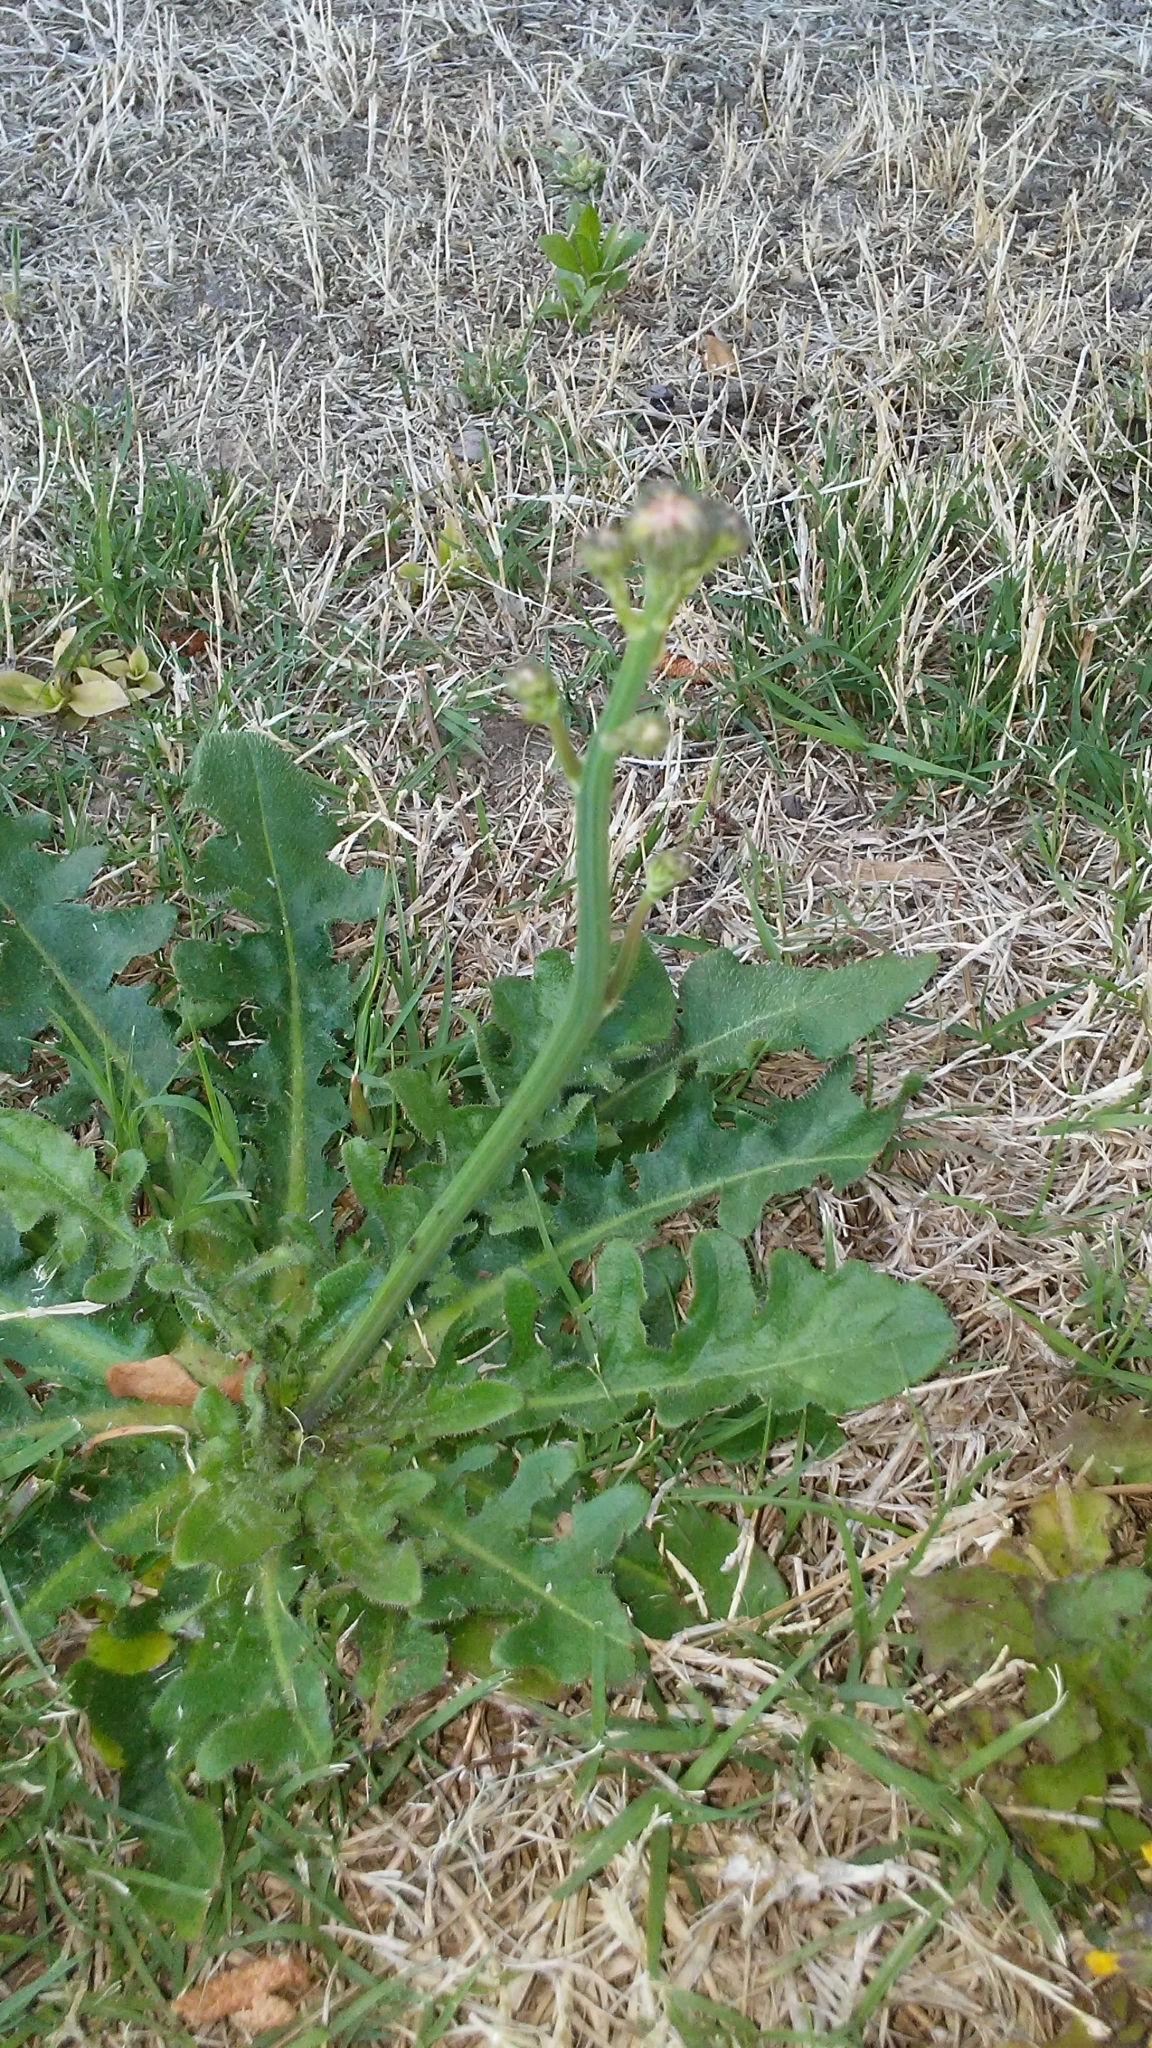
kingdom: Plantae
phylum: Tracheophyta
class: Magnoliopsida
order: Asterales
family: Asteraceae
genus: Hypochaeris
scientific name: Hypochaeris radicata
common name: Flatweed
